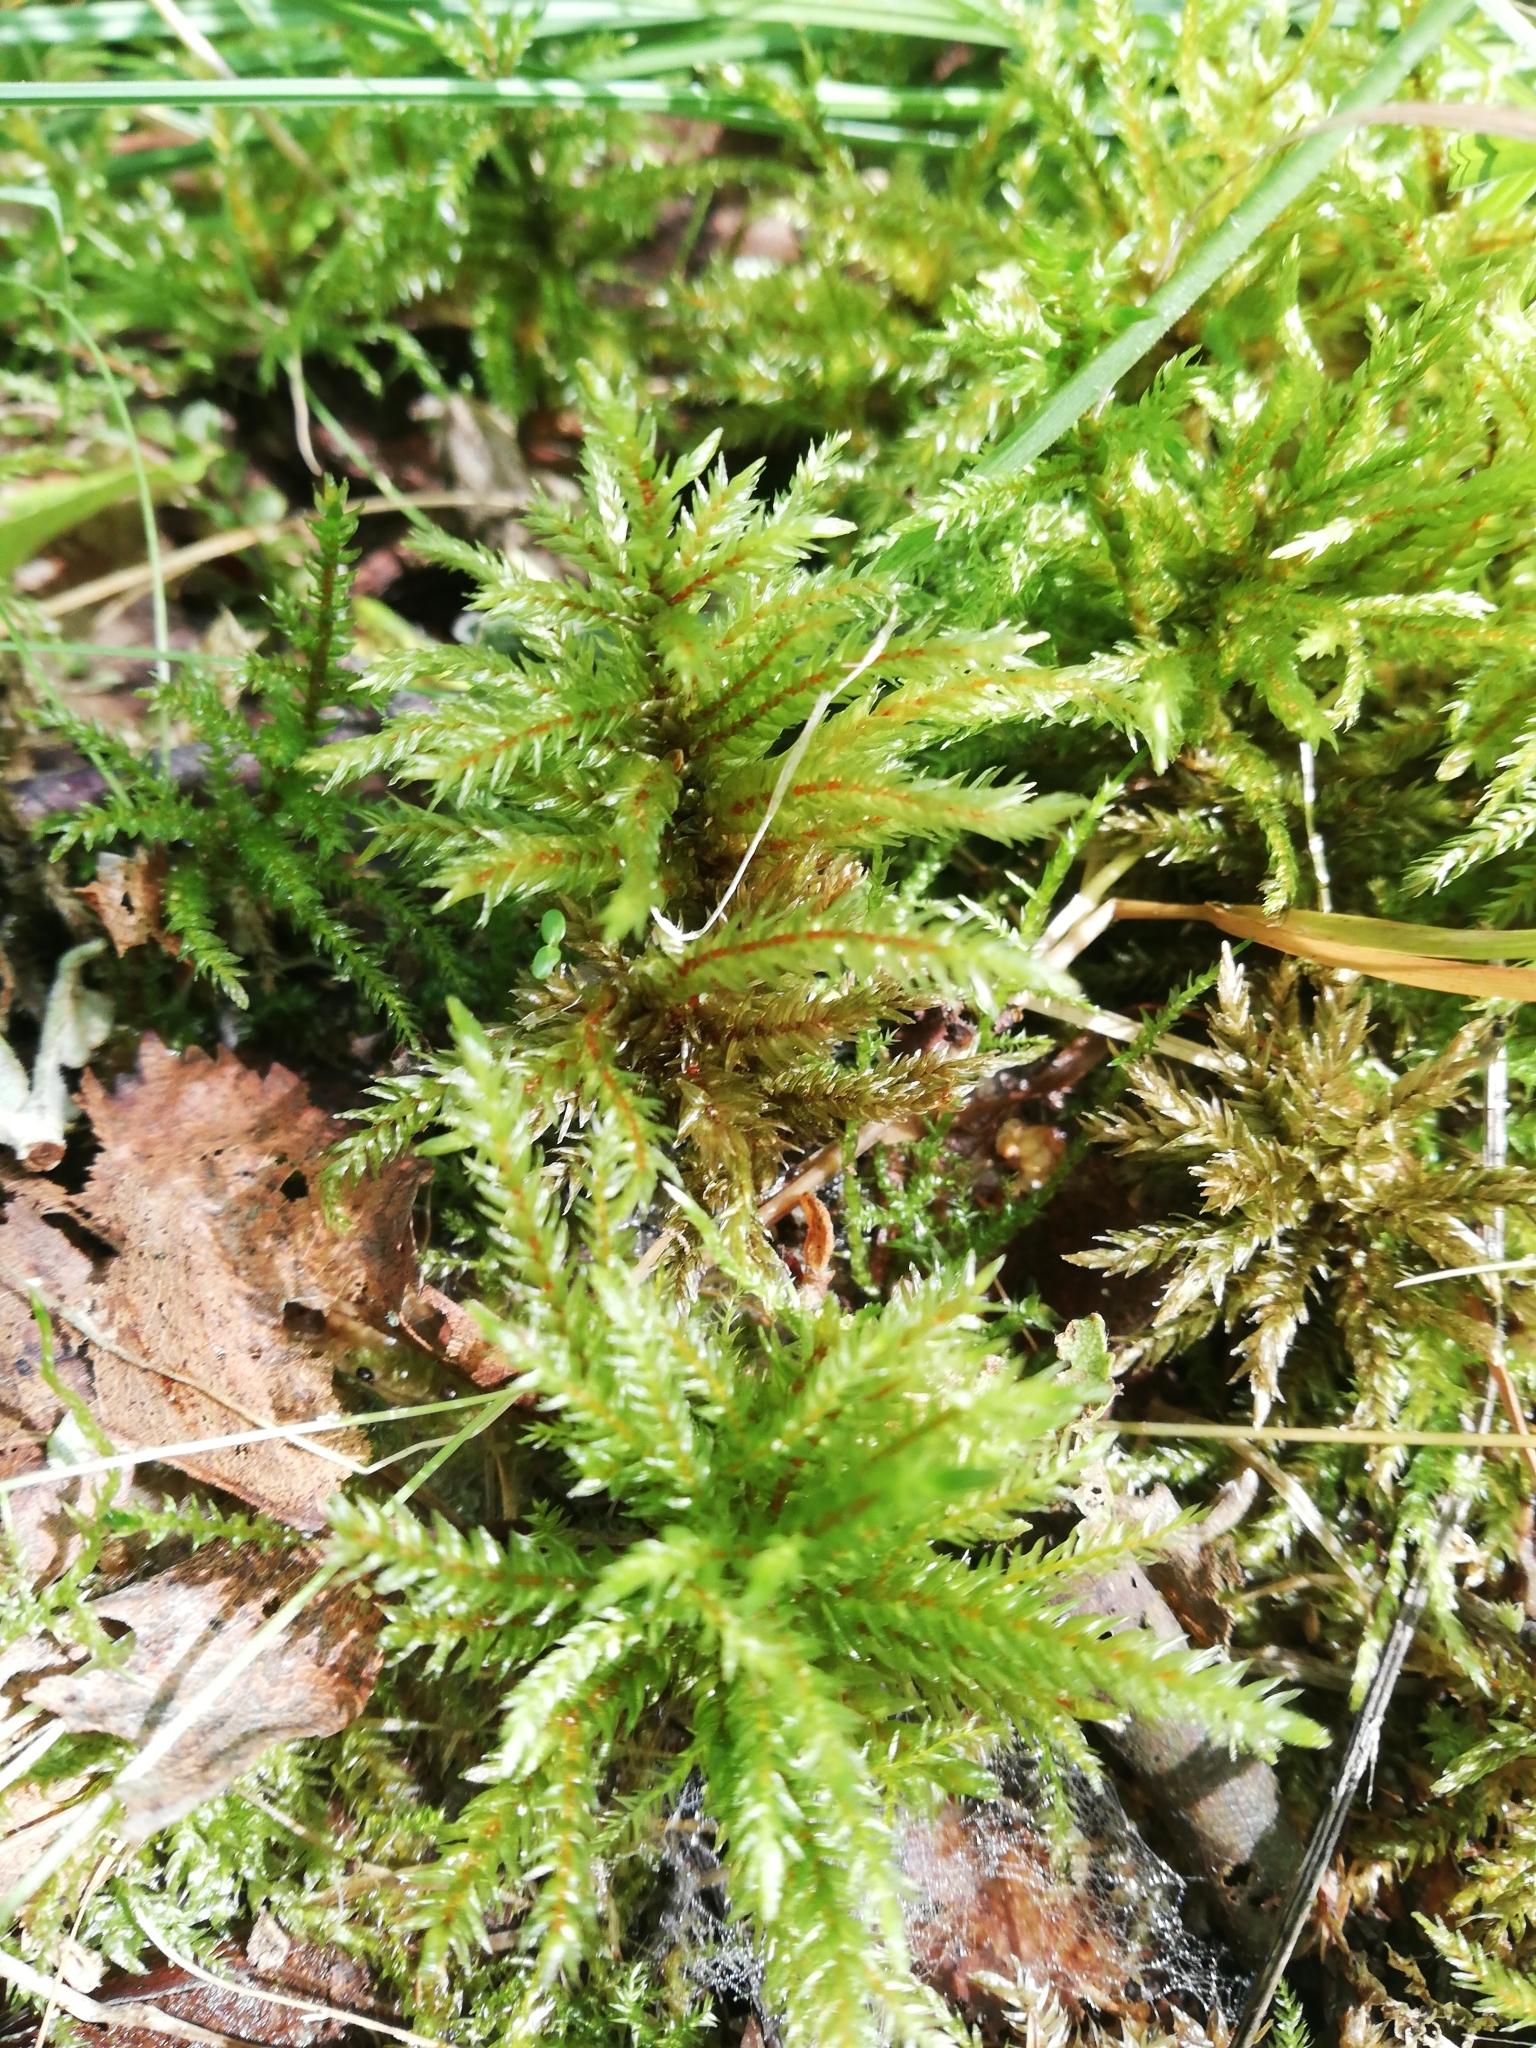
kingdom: Plantae
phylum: Bryophyta
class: Bryopsida
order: Hypnales
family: Climaciaceae
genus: Climacium
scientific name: Climacium dendroides
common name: Northern tree moss
